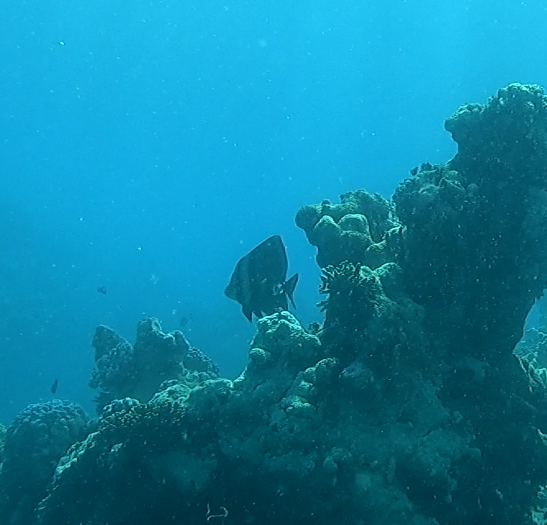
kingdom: Animalia
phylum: Chordata
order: Perciformes
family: Ephippidae
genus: Platax
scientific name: Platax pinnatus
